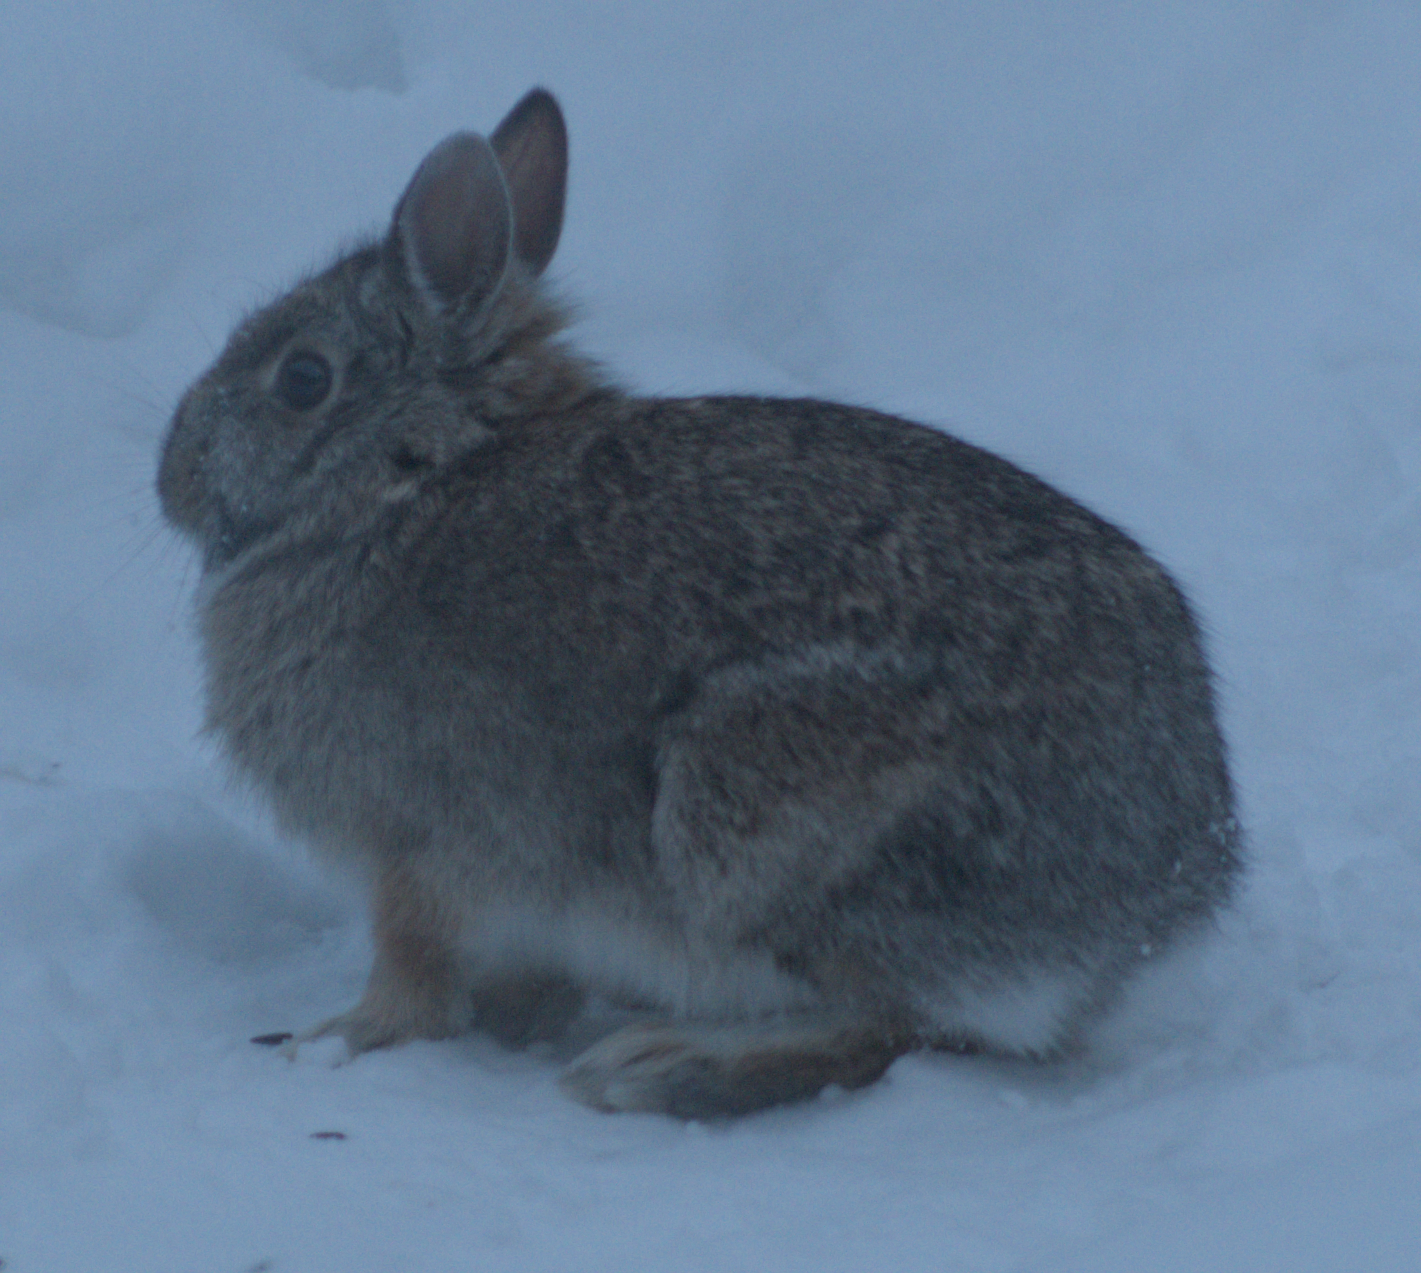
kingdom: Animalia
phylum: Chordata
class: Mammalia
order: Lagomorpha
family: Leporidae
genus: Sylvilagus
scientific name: Sylvilagus floridanus
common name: Eastern cottontail
